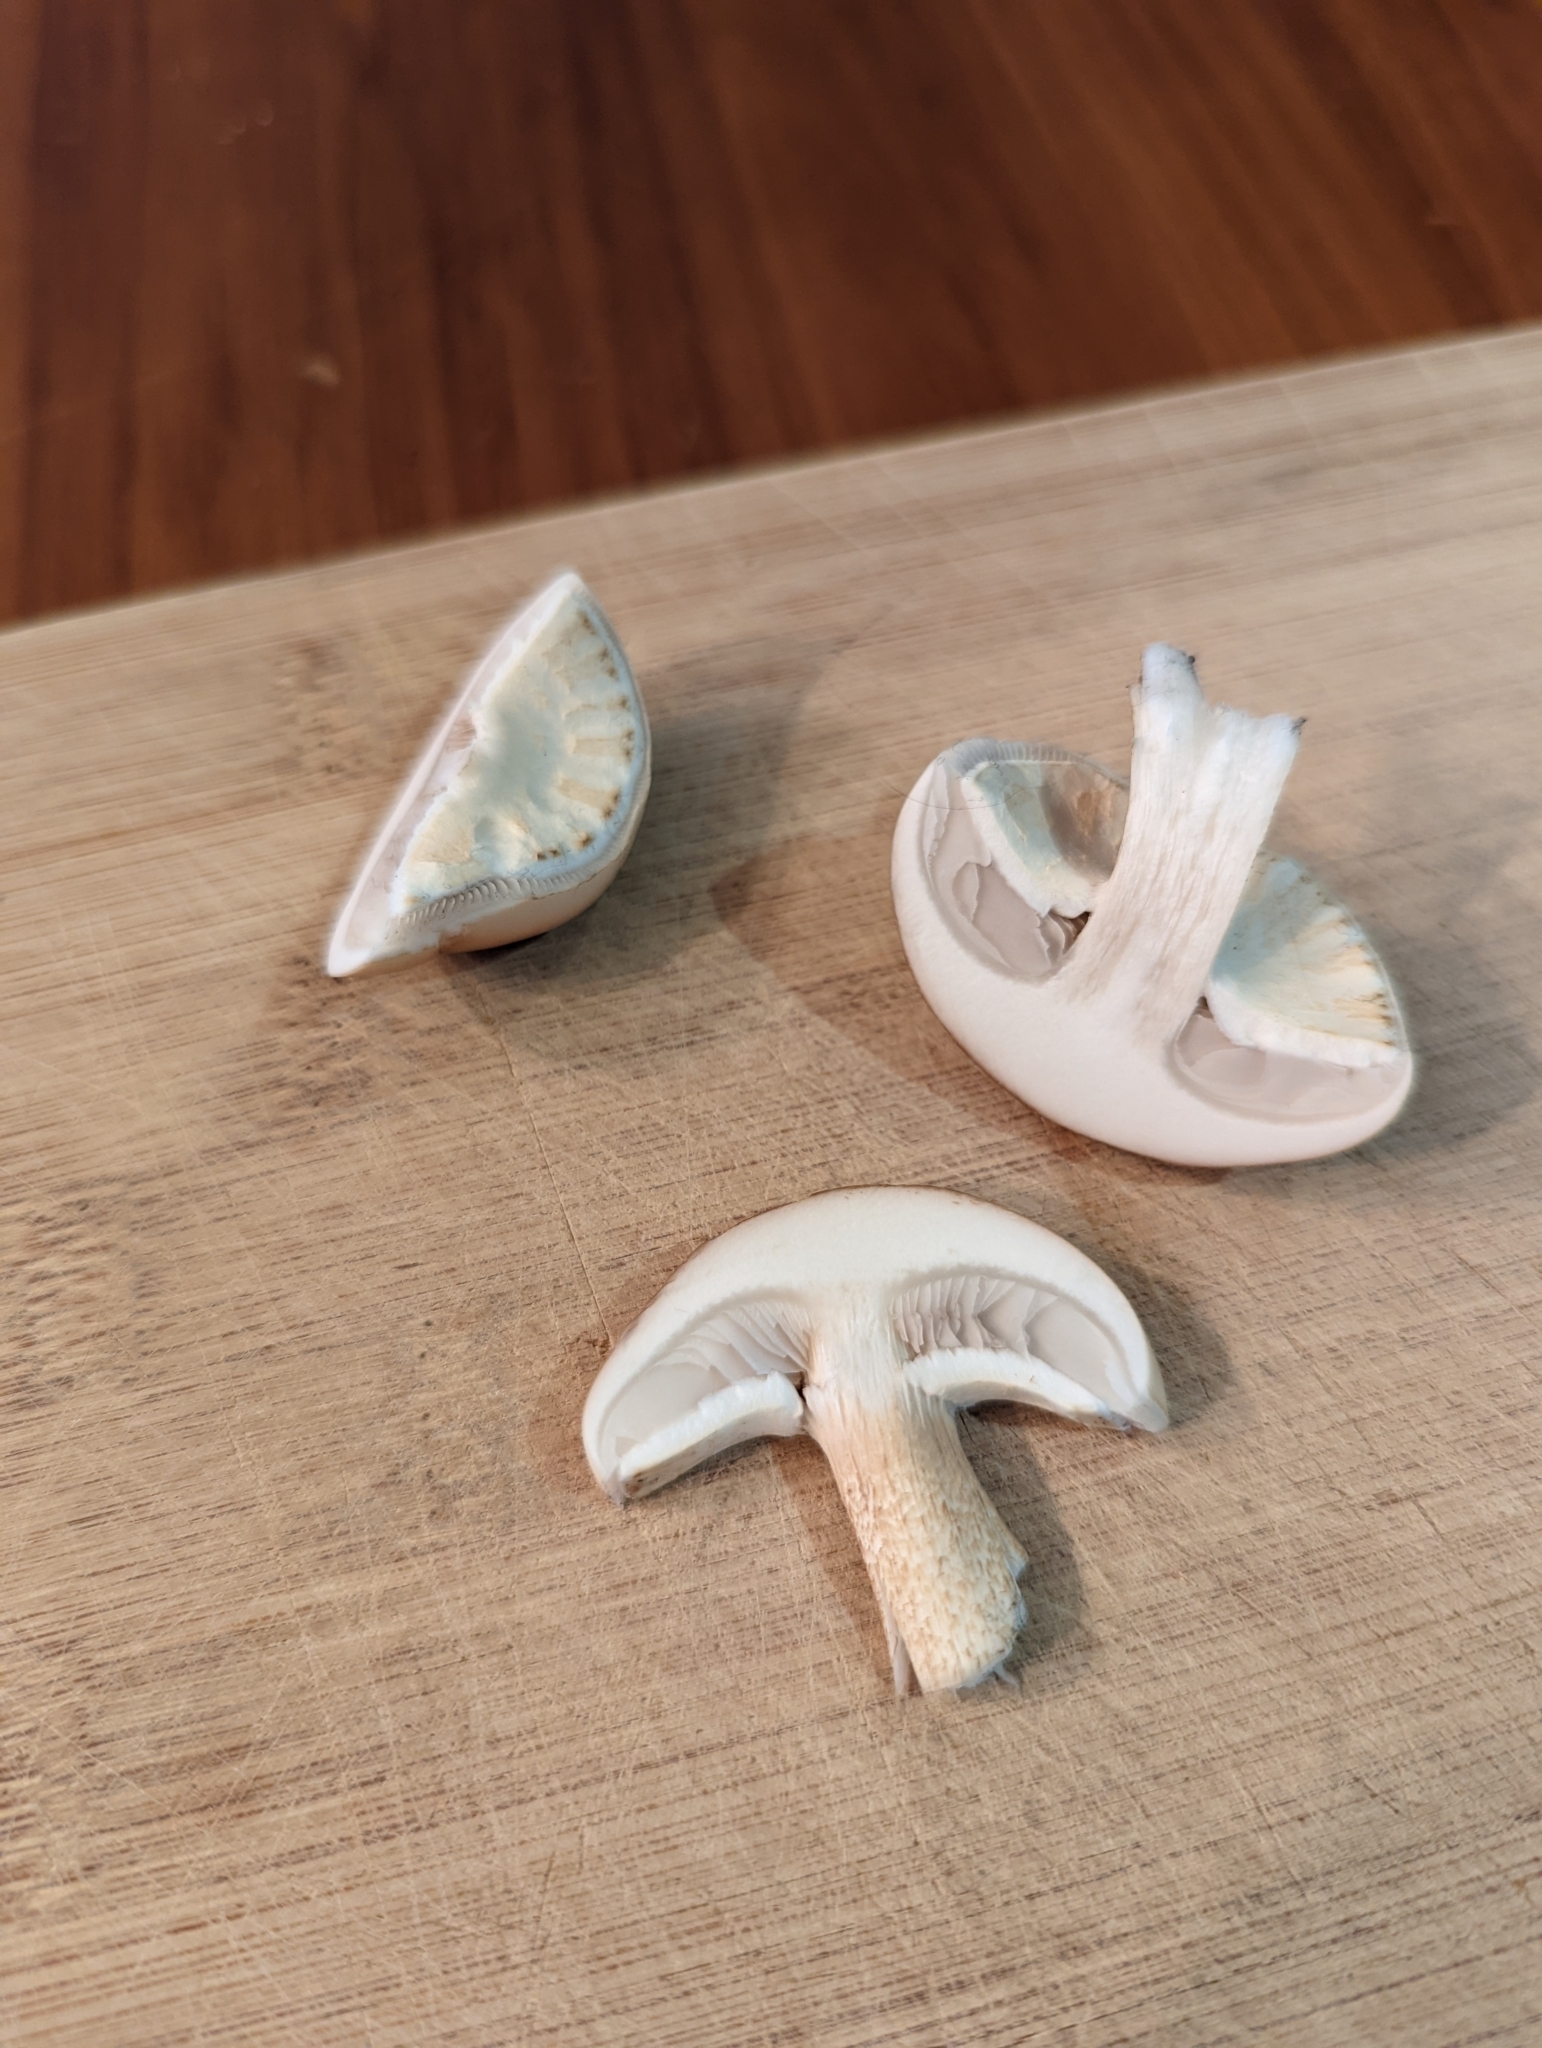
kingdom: Fungi
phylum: Basidiomycota
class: Agaricomycetes
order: Agaricales
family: Tubariaceae
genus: Cyclocybe
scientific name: Cyclocybe parasitica
